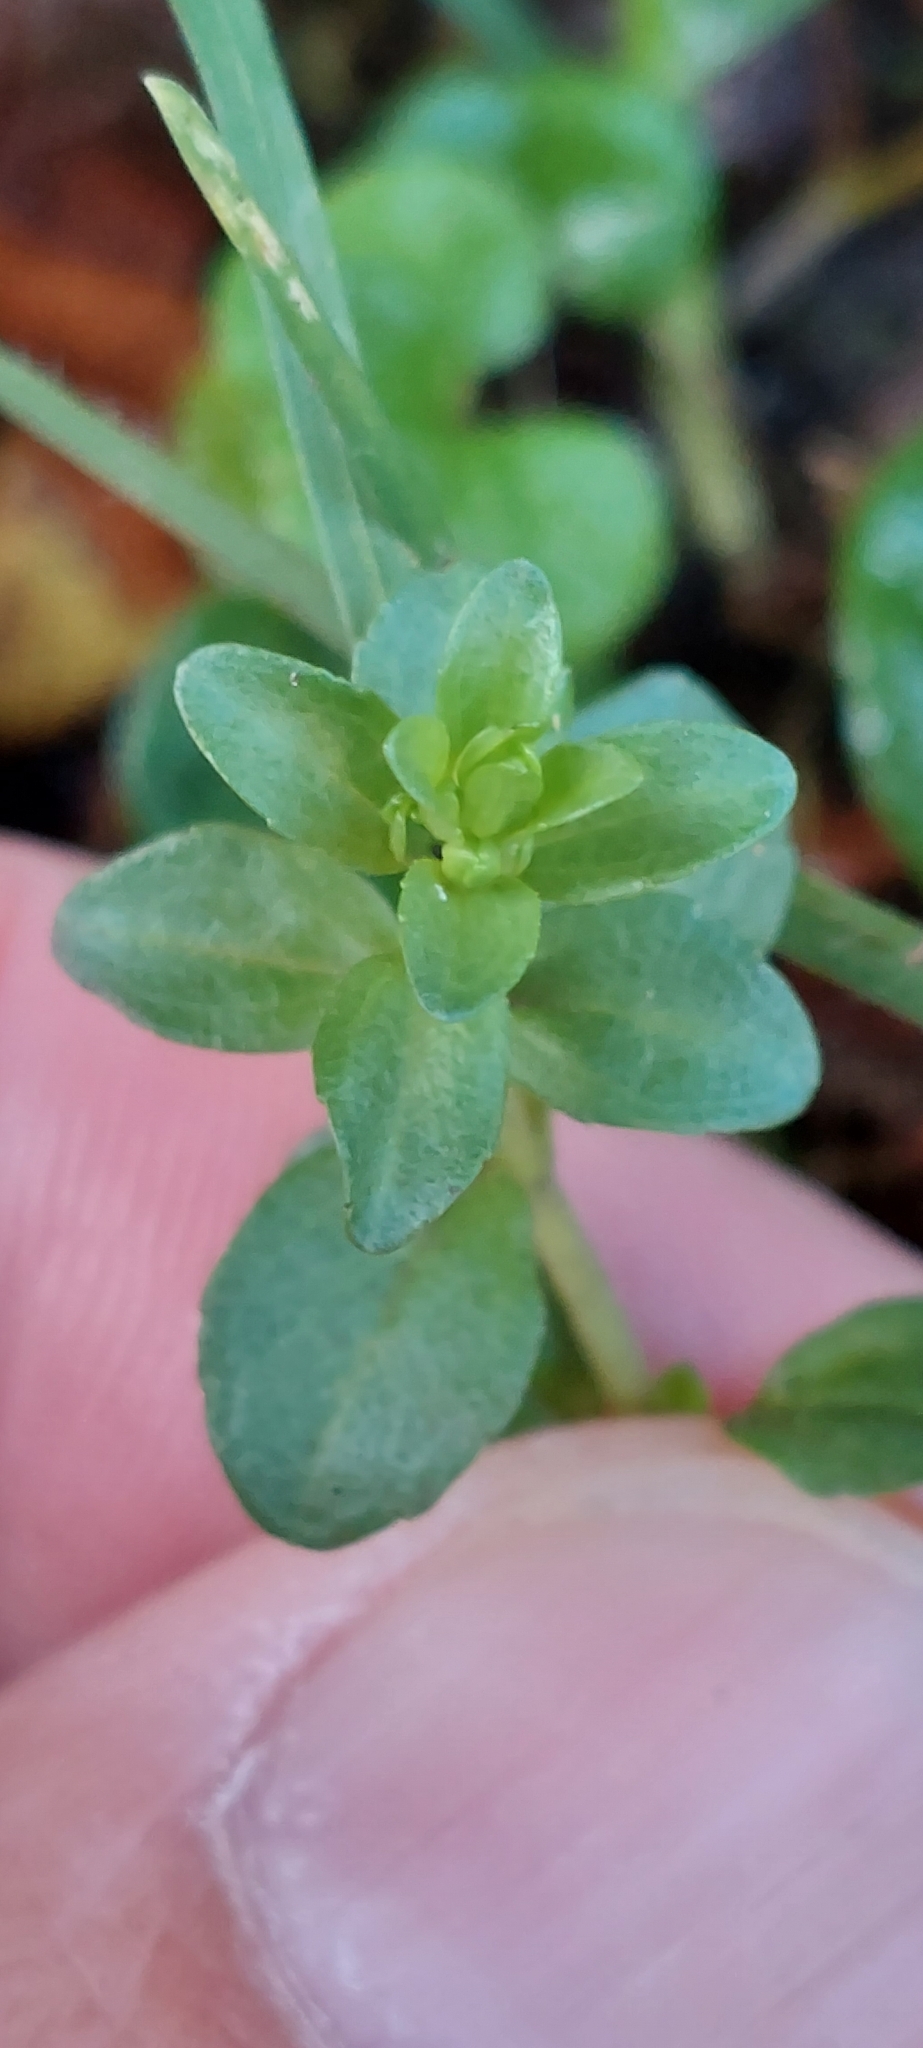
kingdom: Plantae
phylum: Tracheophyta
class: Magnoliopsida
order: Lamiales
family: Plantaginaceae
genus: Veronica
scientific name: Veronica serpyllifolia
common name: Thyme-leaved speedwell
